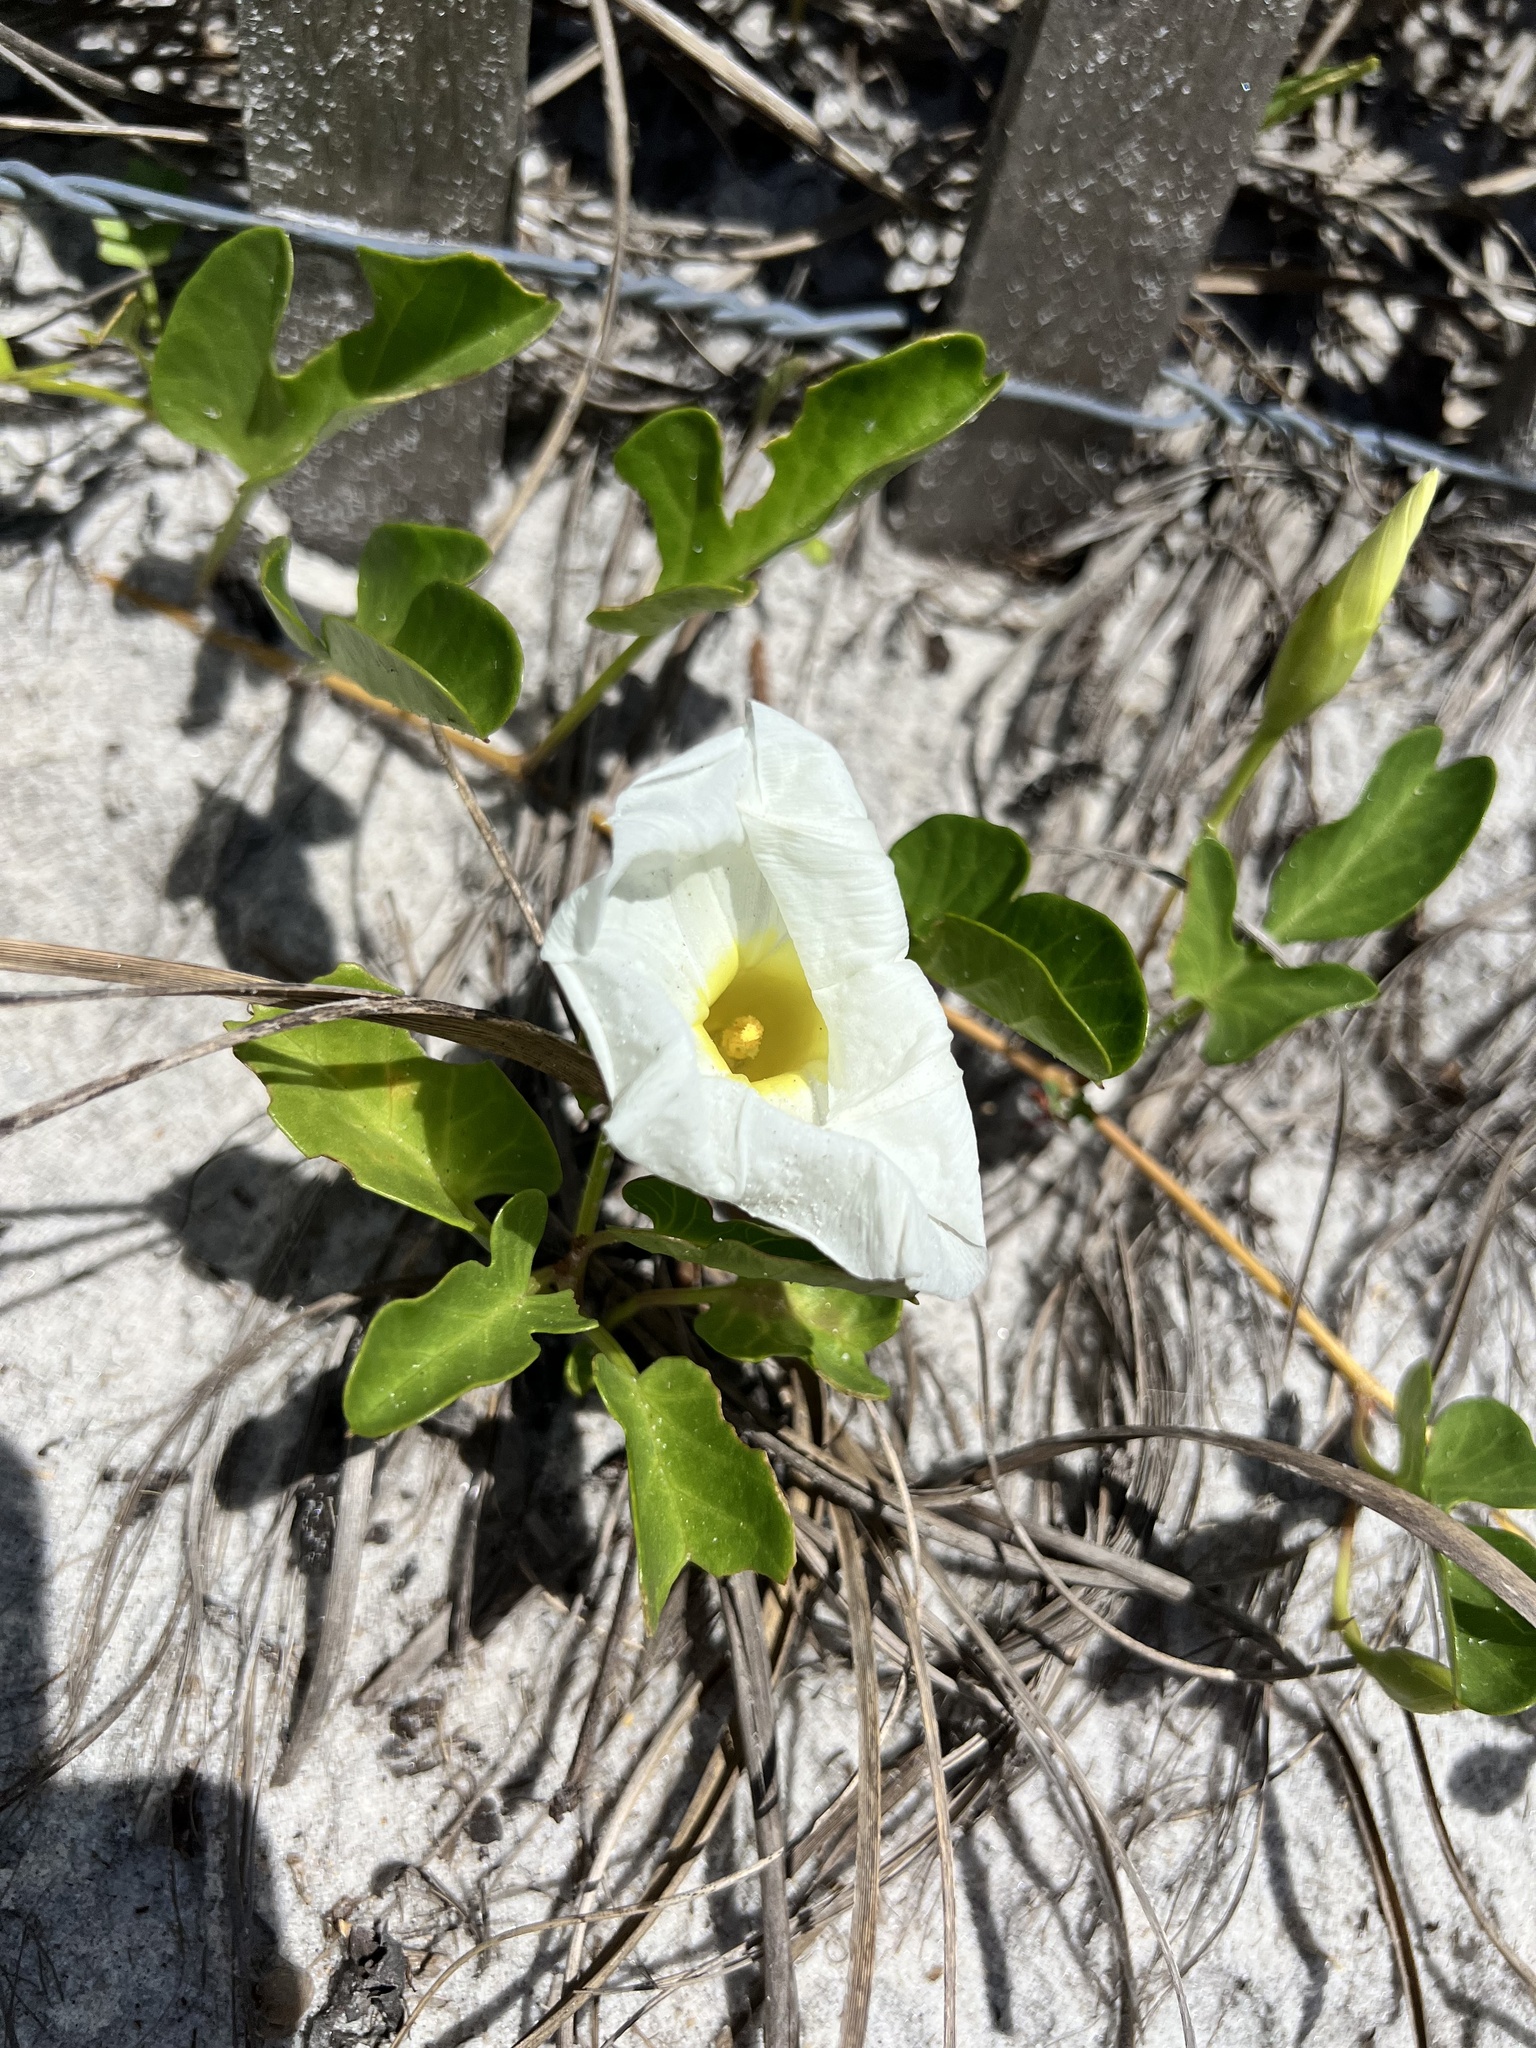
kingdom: Plantae
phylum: Tracheophyta
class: Magnoliopsida
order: Solanales
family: Convolvulaceae
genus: Ipomoea
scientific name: Ipomoea imperati
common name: Fiddle-leaf morning-glory
